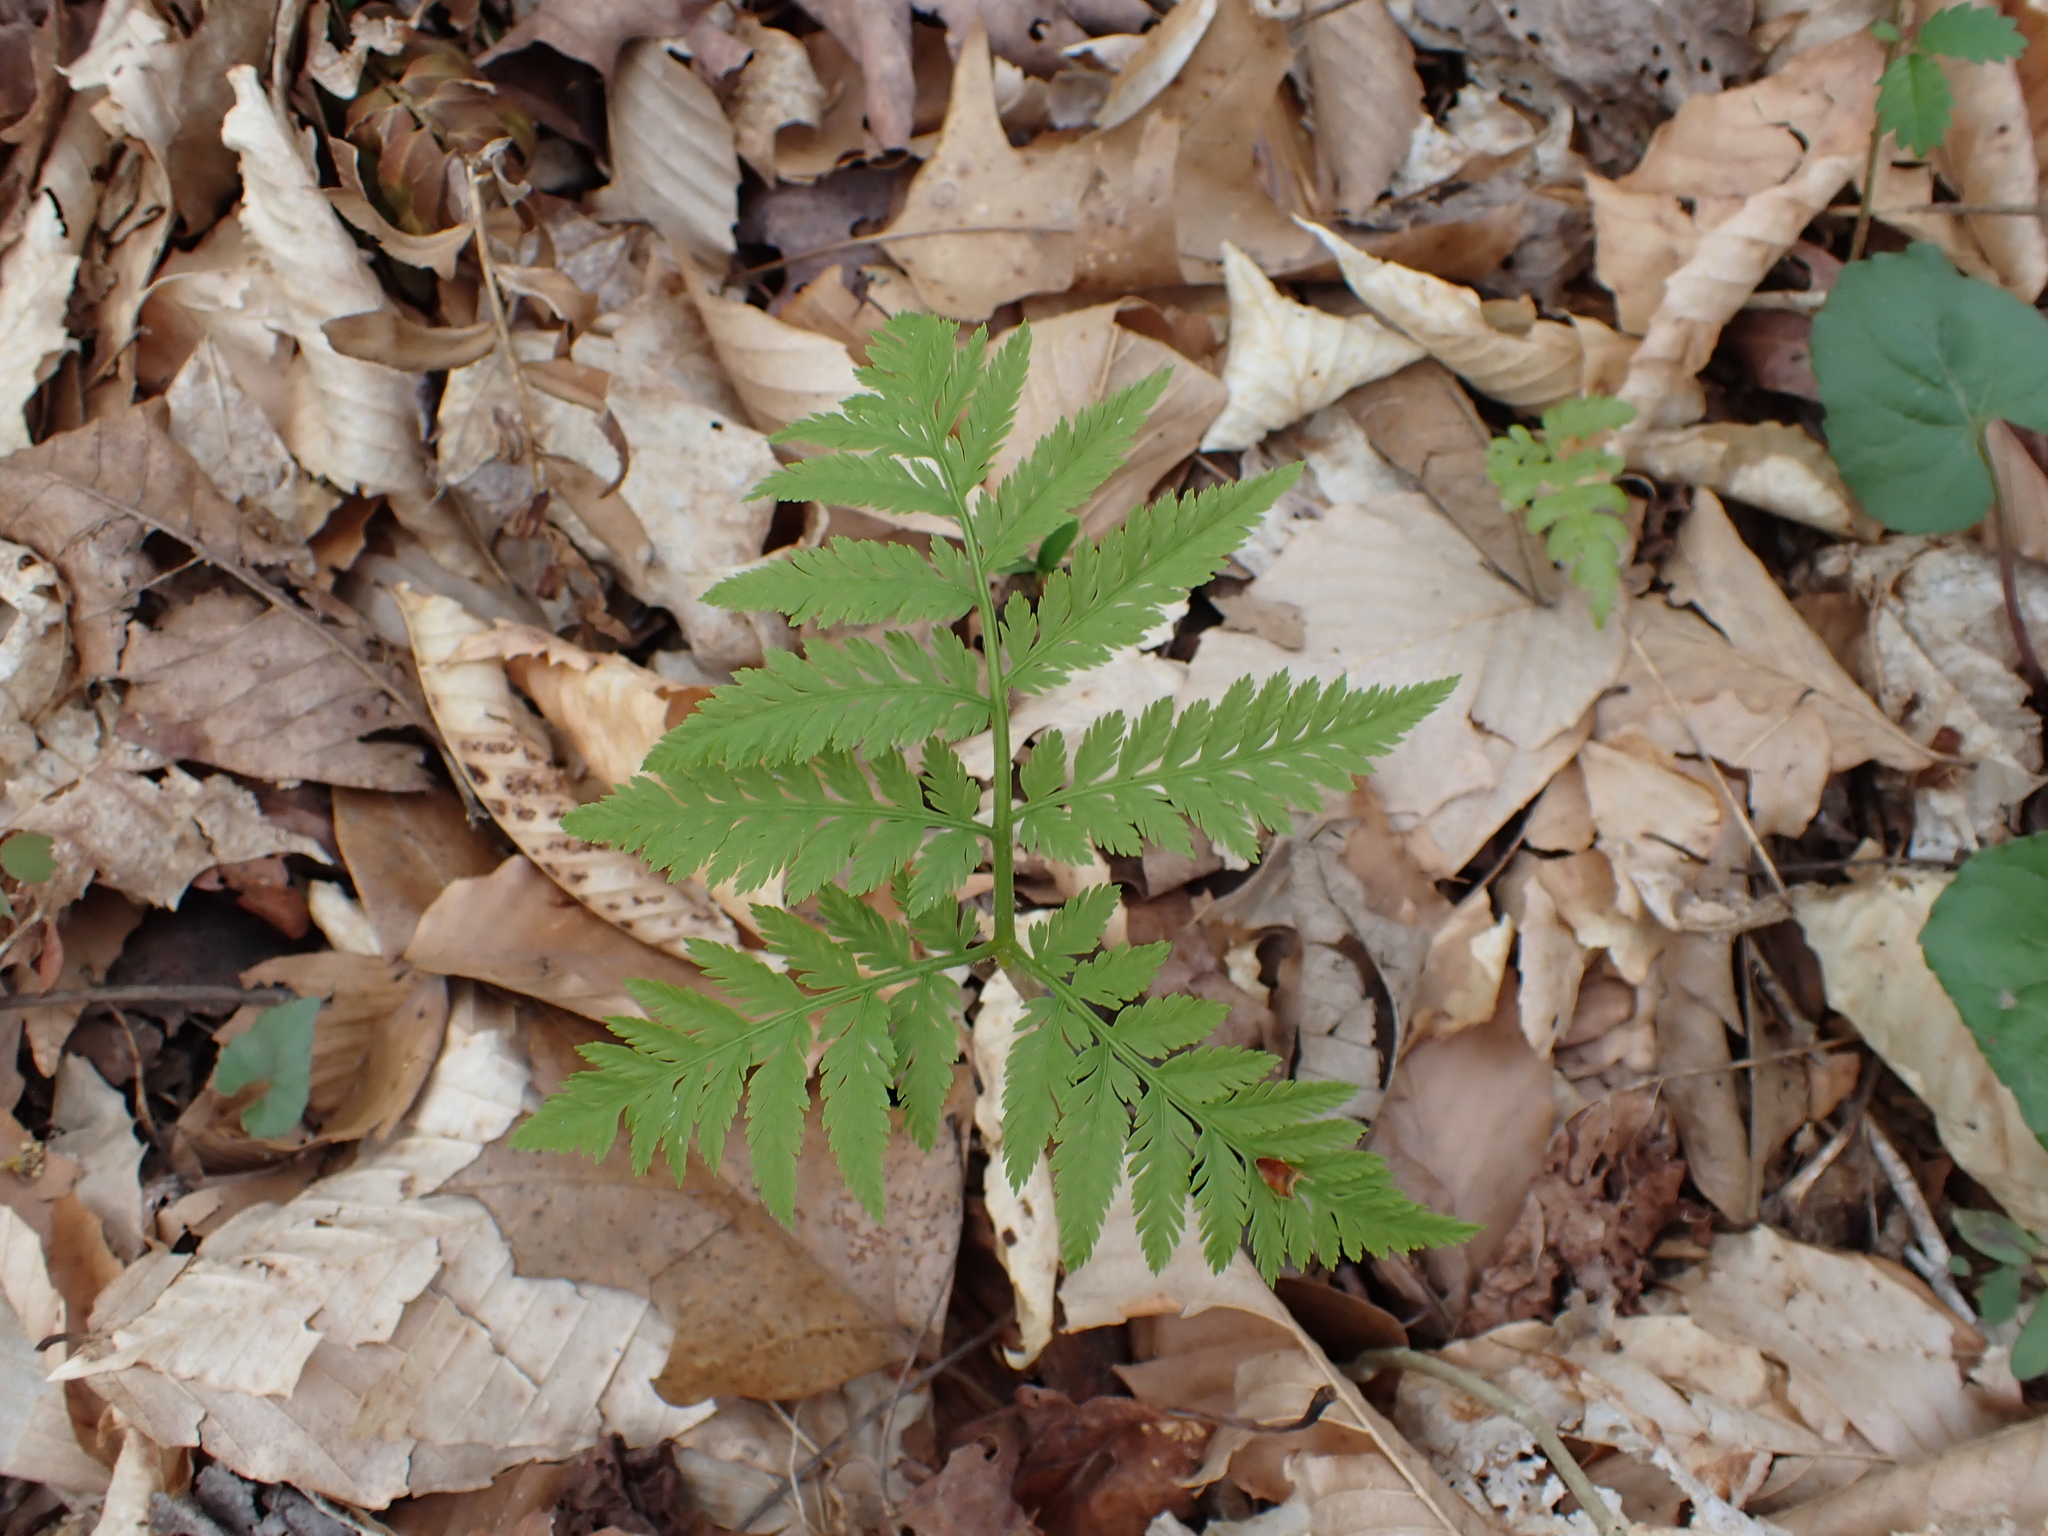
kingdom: Plantae
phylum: Tracheophyta
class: Polypodiopsida
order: Ophioglossales
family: Ophioglossaceae
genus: Botrypus
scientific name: Botrypus virginianus
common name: Common grapefern
